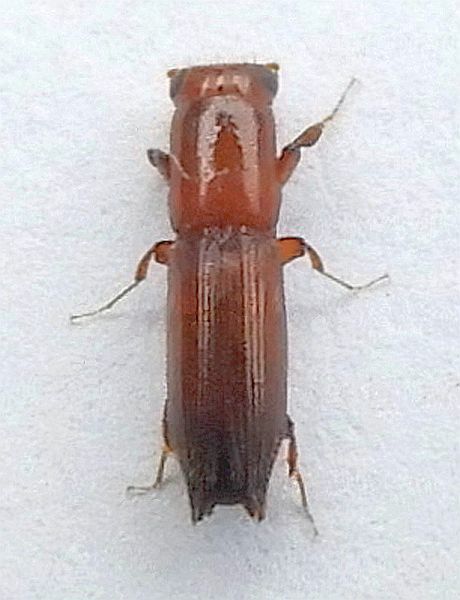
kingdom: Animalia
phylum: Arthropoda
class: Insecta
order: Coleoptera
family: Curculionidae
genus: Euplatypus
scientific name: Euplatypus compositus
